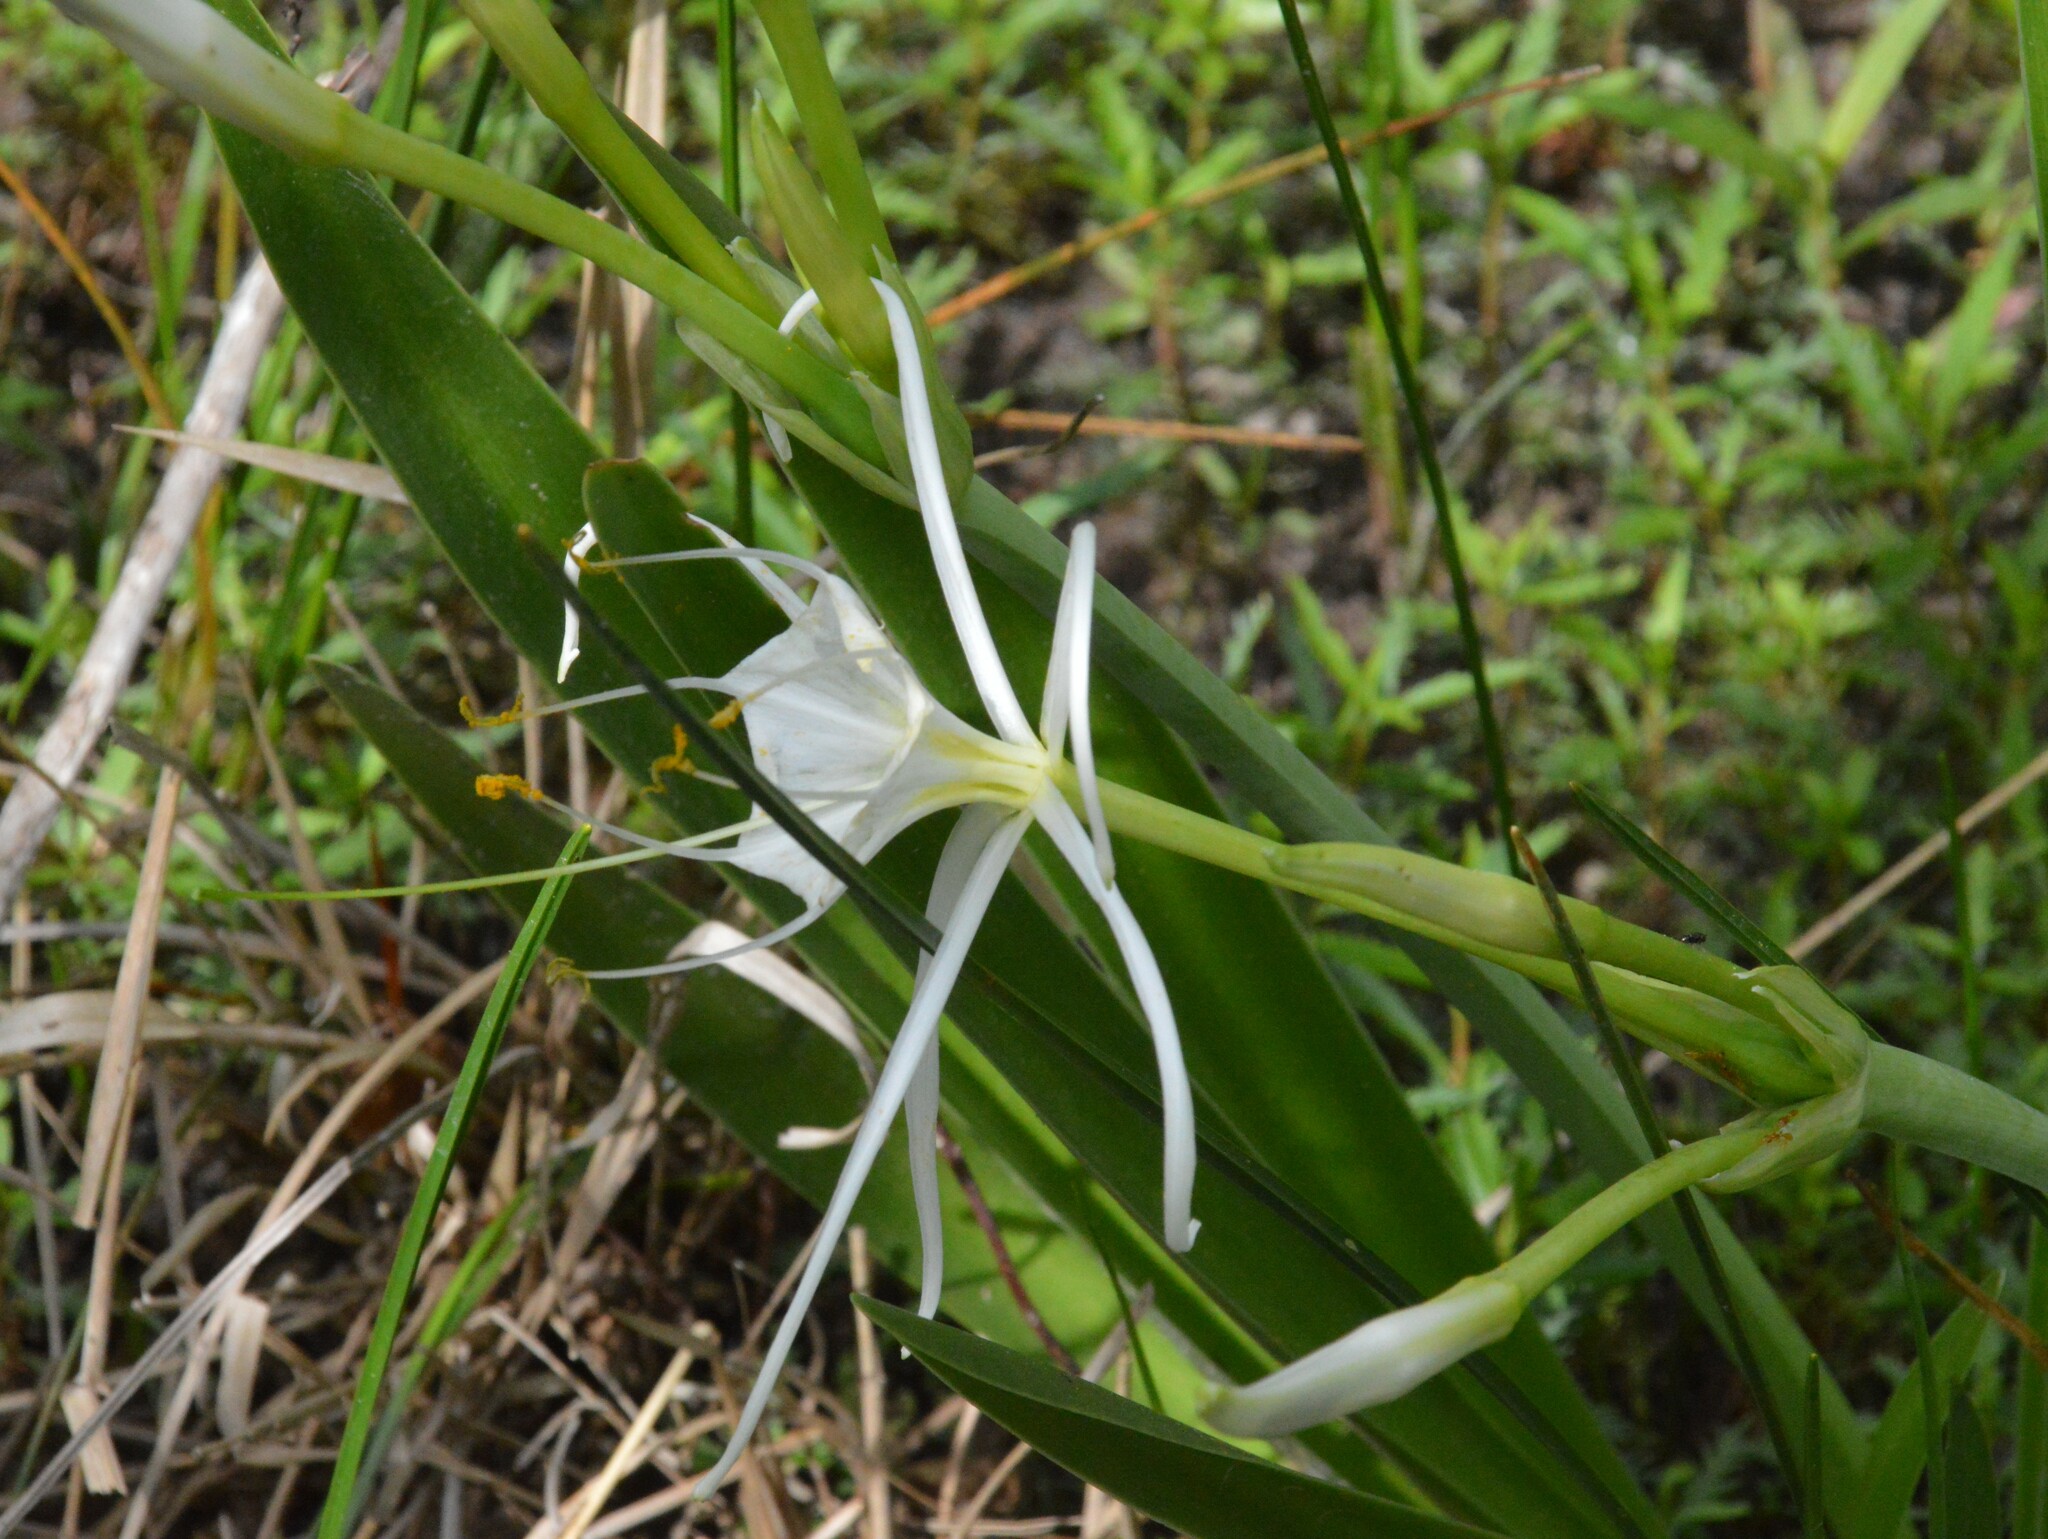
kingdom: Plantae
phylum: Tracheophyta
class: Liliopsida
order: Asparagales
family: Amaryllidaceae
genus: Hymenocallis
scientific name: Hymenocallis liriosme
